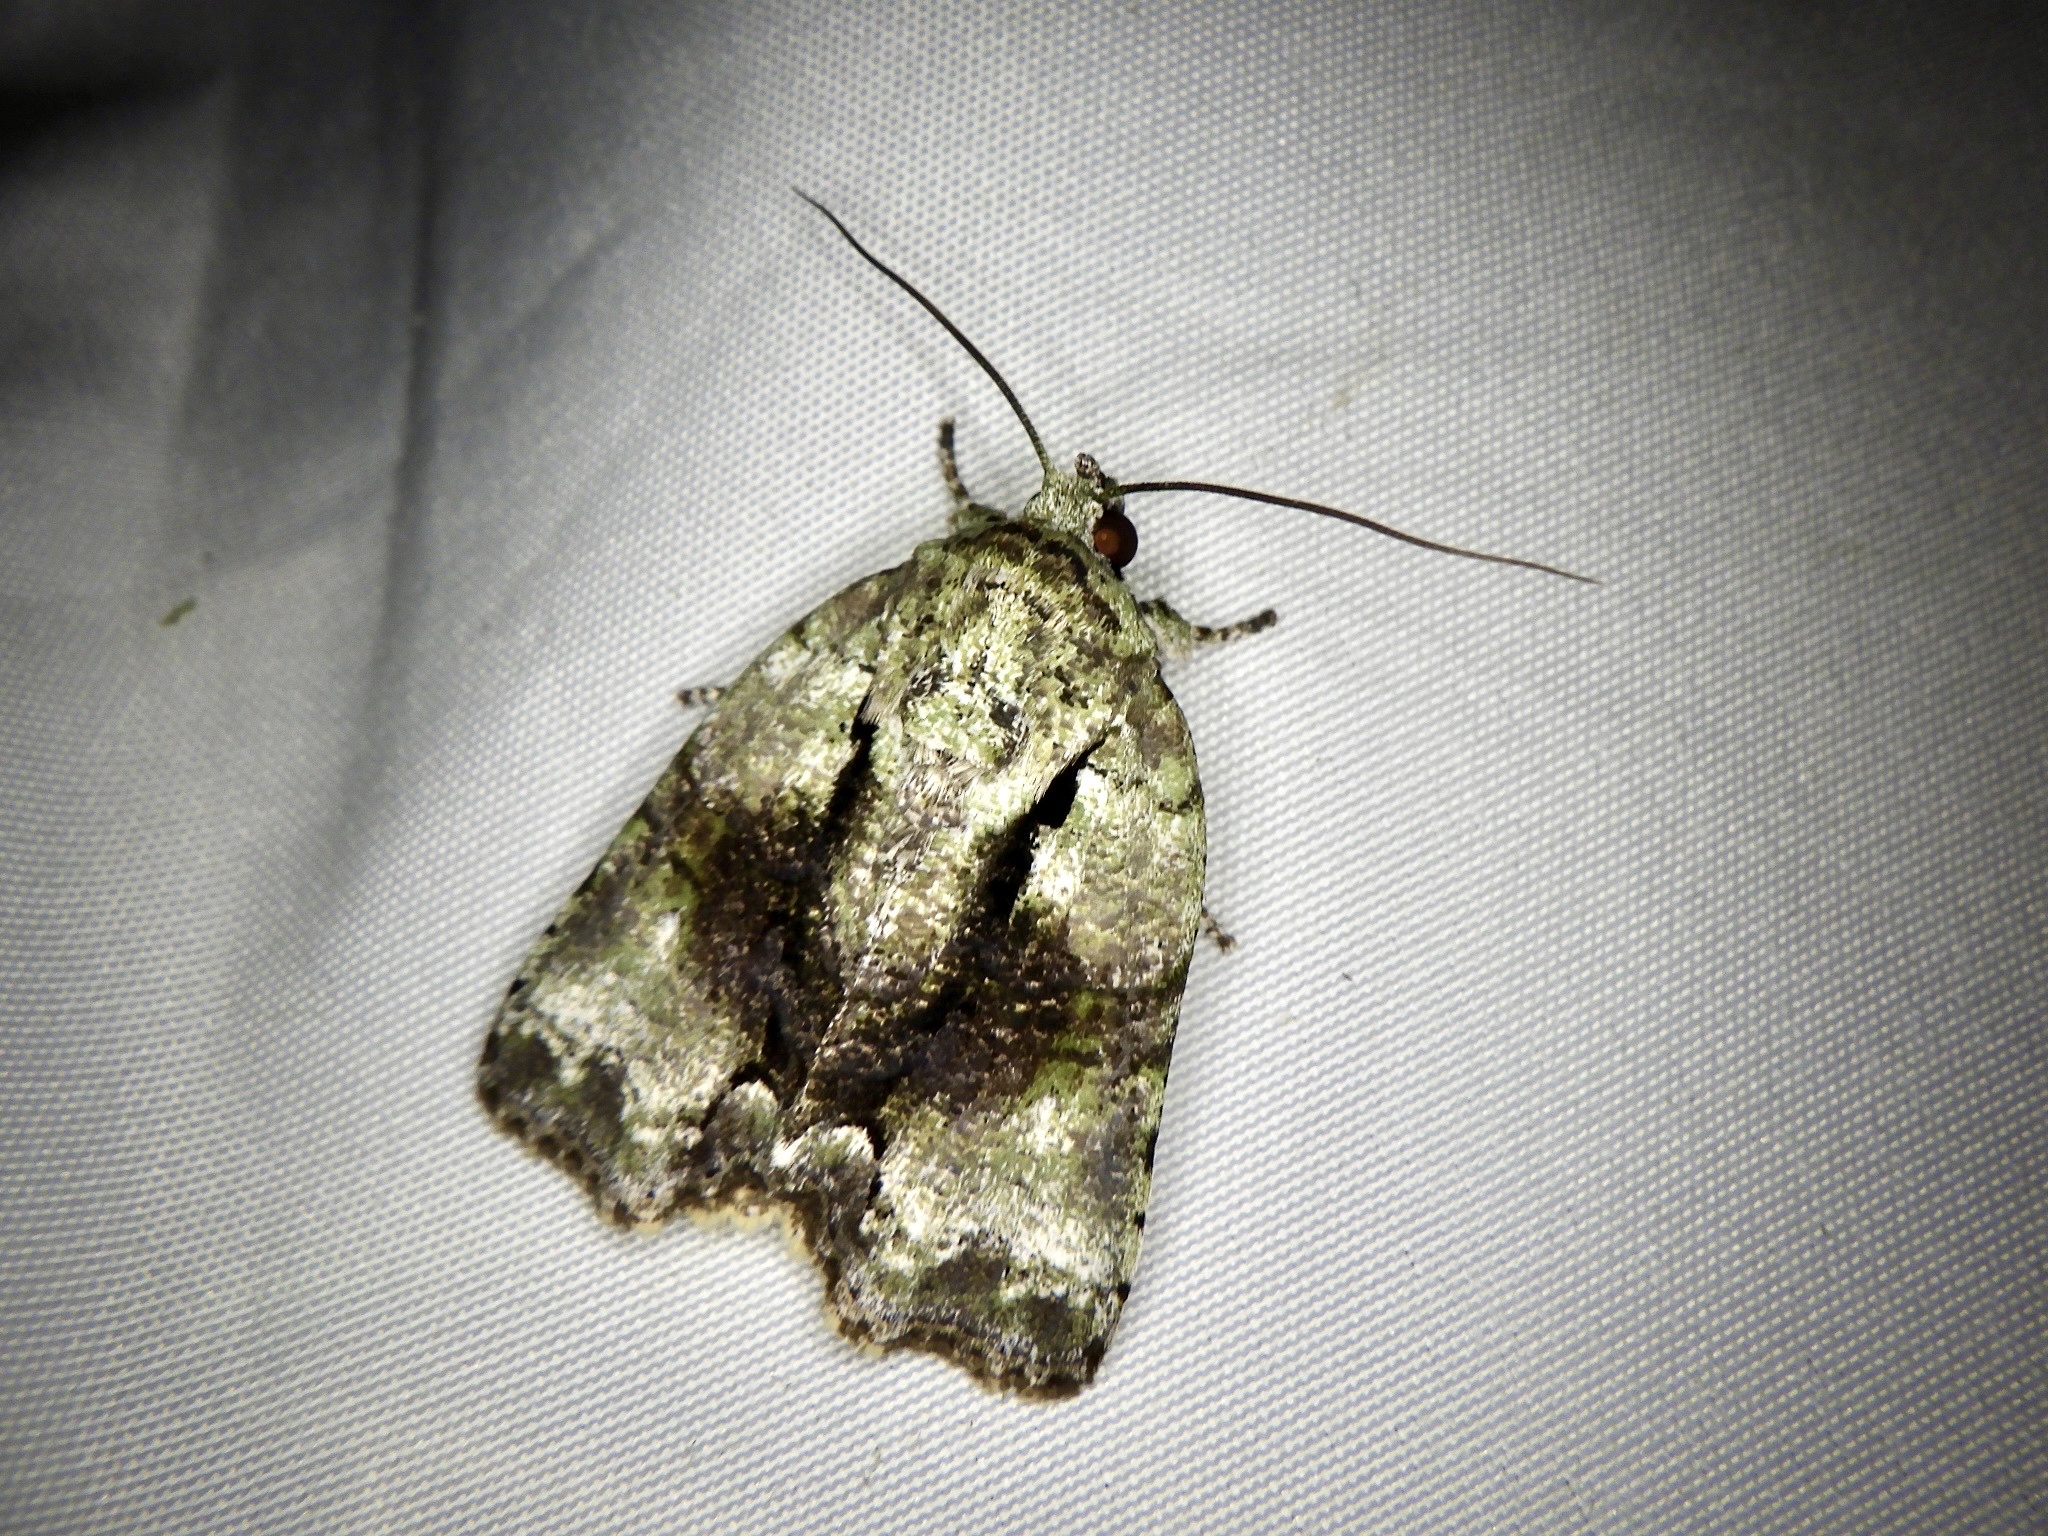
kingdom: Animalia
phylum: Arthropoda
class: Insecta
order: Lepidoptera
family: Nolidae
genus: Blenina
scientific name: Blenina senex
